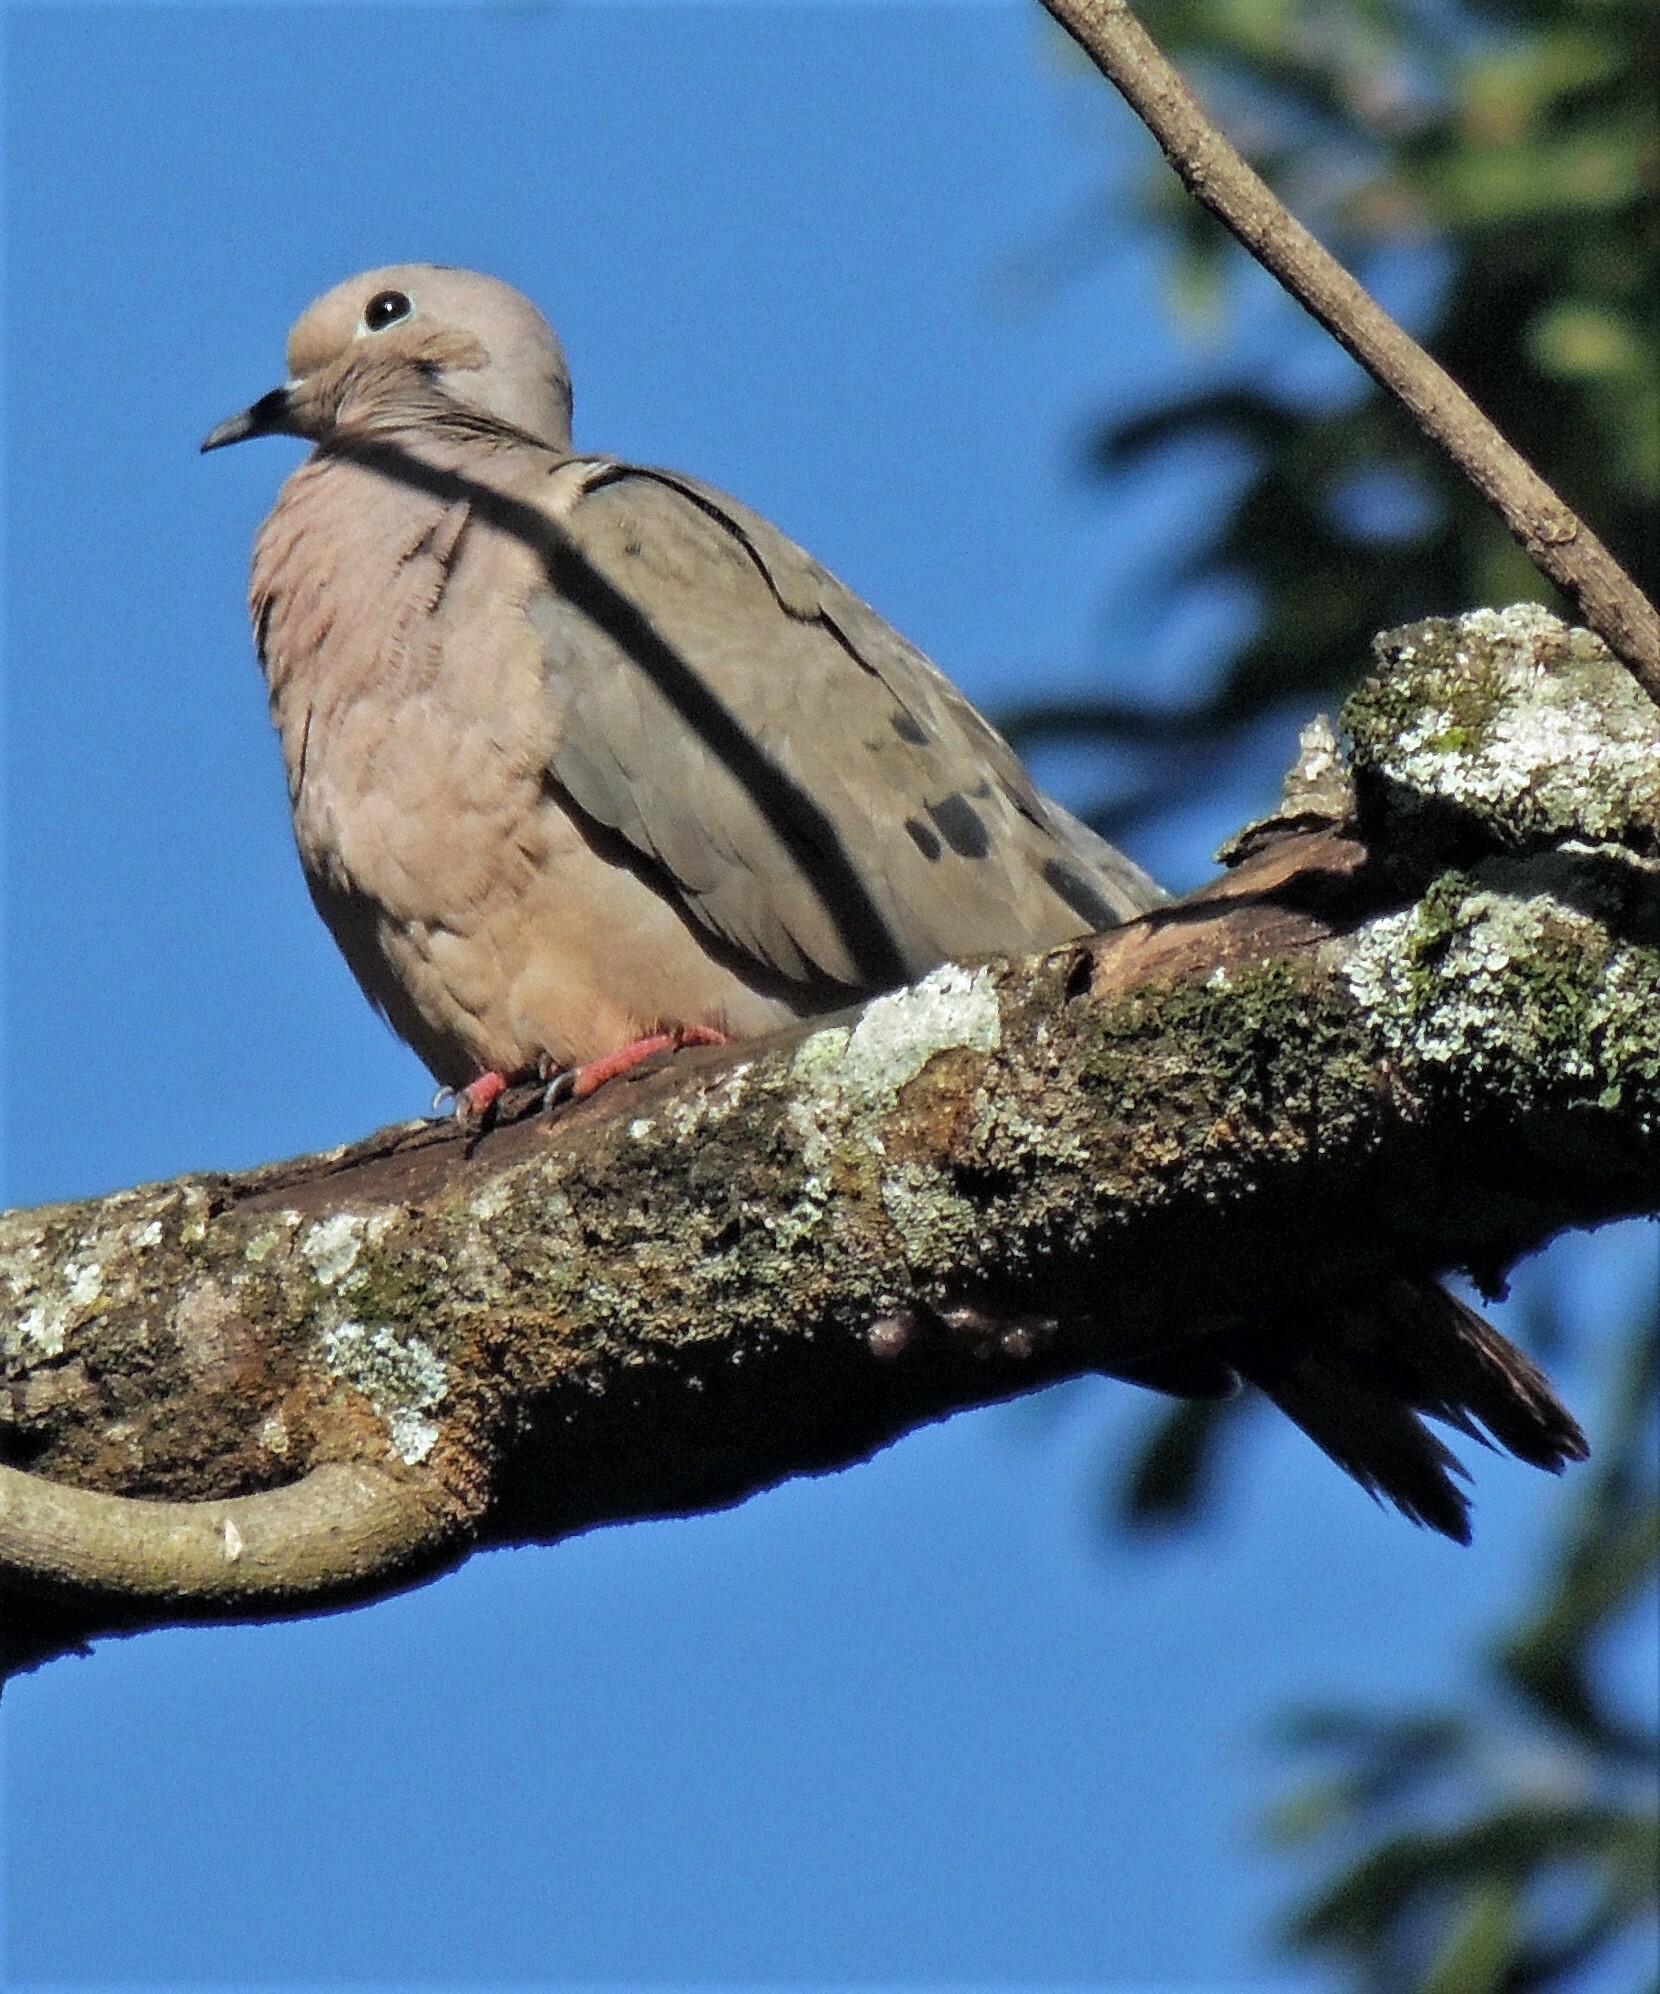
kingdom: Animalia
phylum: Chordata
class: Aves
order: Columbiformes
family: Columbidae
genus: Zenaida
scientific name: Zenaida auriculata
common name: Eared dove
